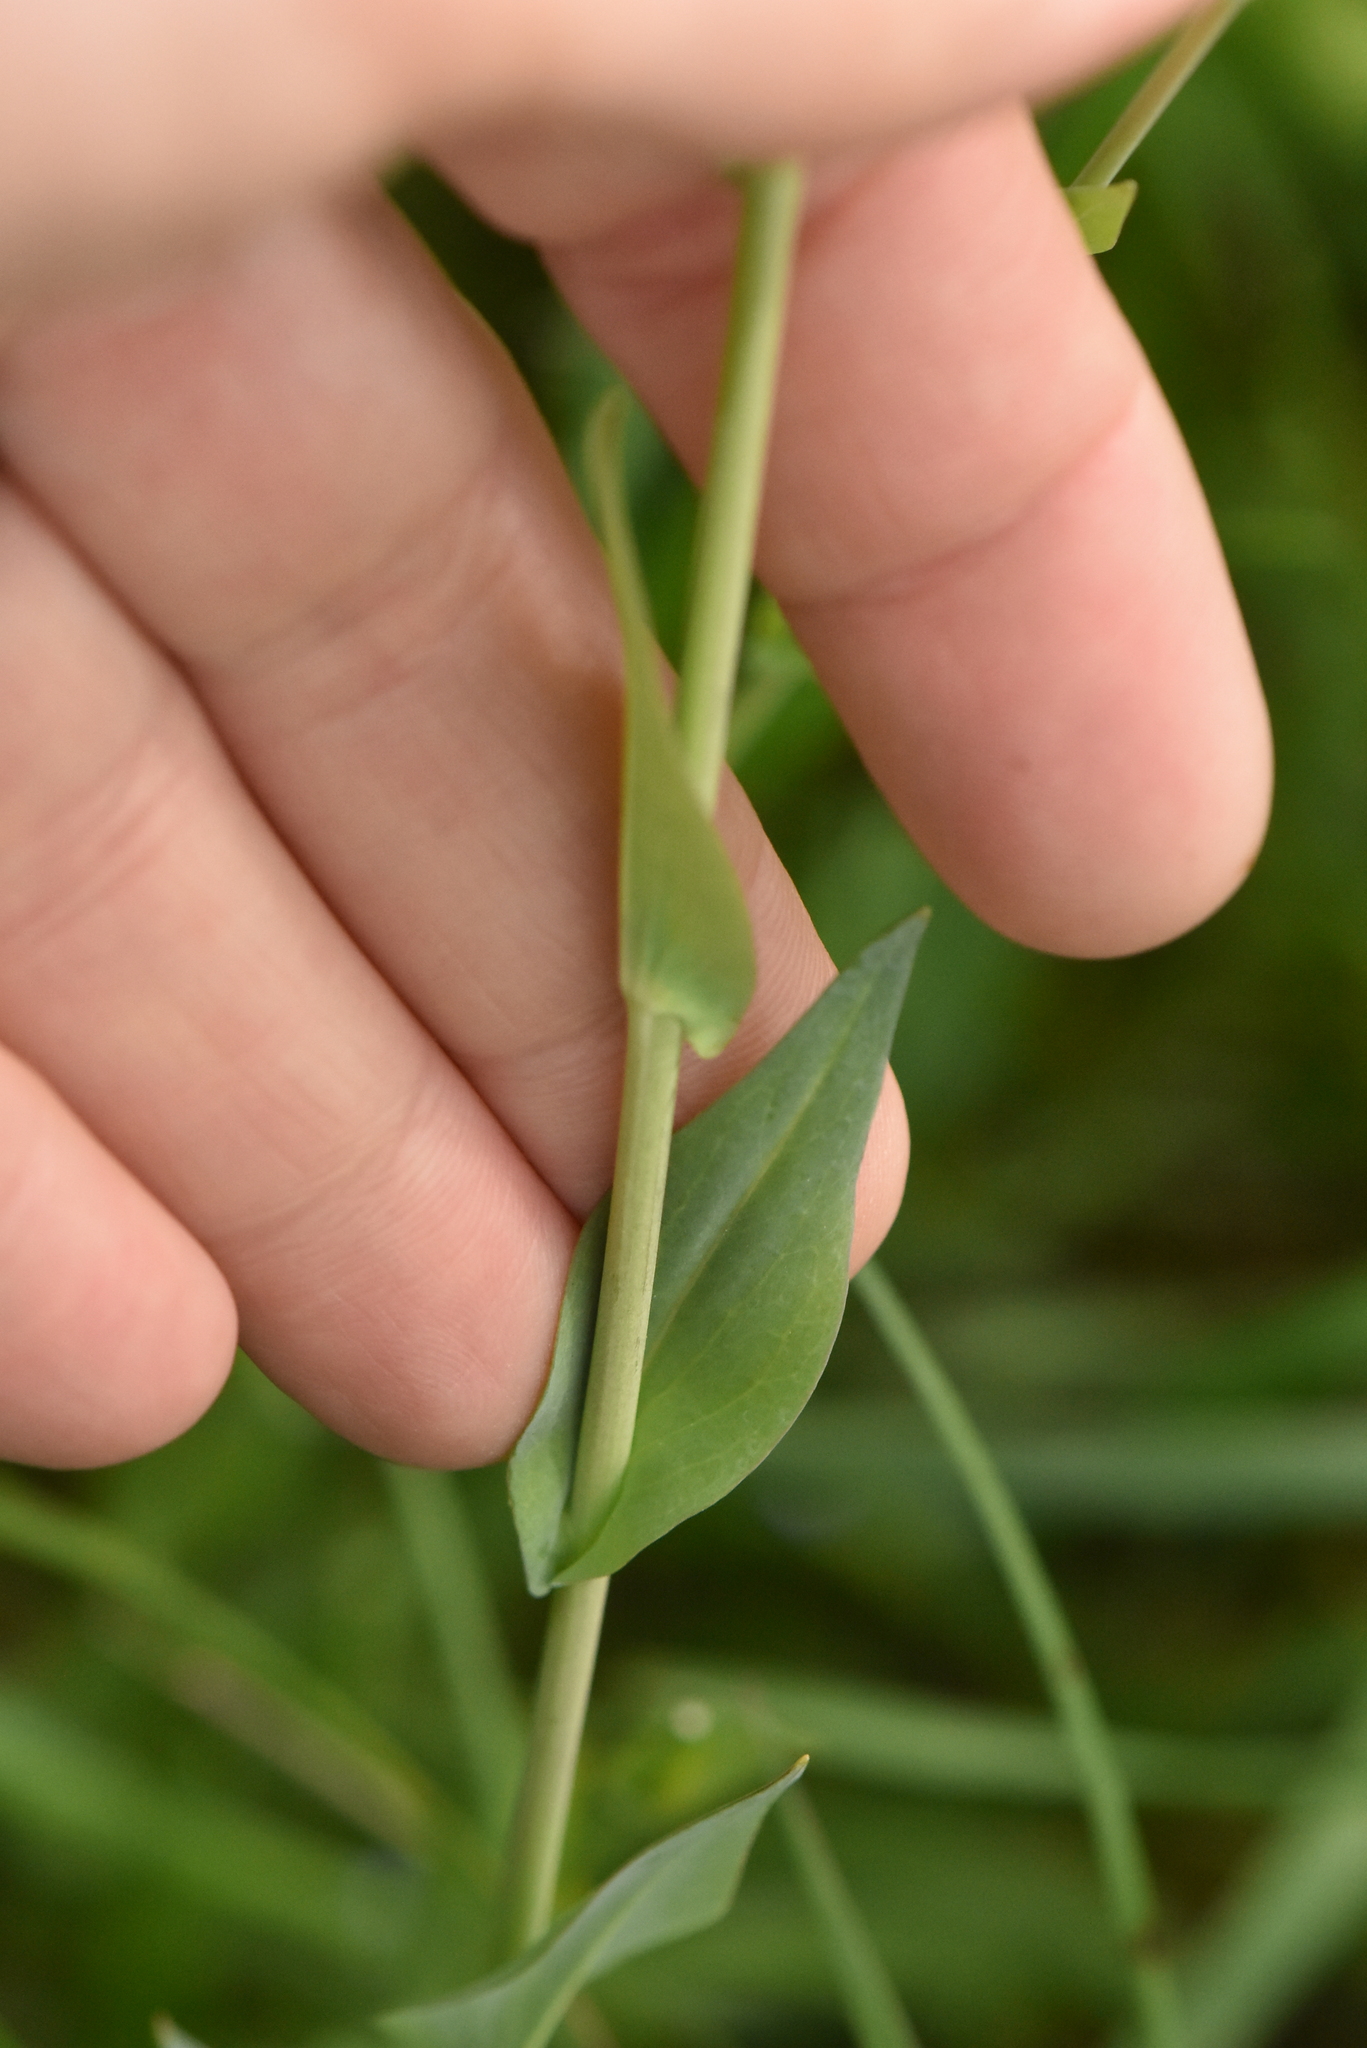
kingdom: Plantae
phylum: Tracheophyta
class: Magnoliopsida
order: Brassicales
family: Brassicaceae
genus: Turritis
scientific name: Turritis glabra
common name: Tower rockcress
